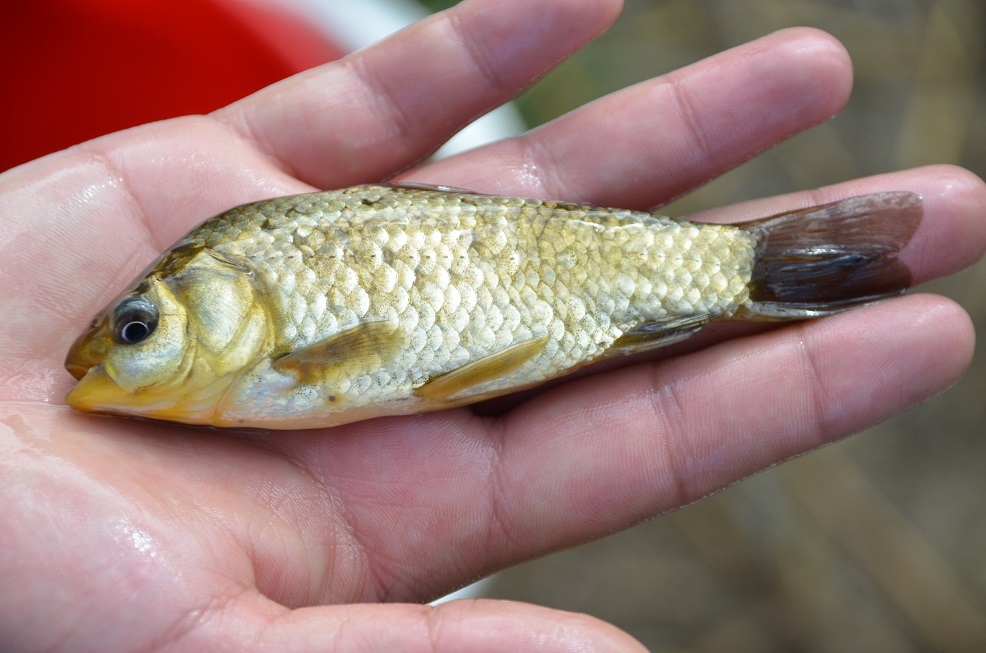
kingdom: Animalia
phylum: Chordata
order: Cypriniformes
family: Cyprinidae
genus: Carassius
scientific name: Carassius auratus
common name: Goldfish
